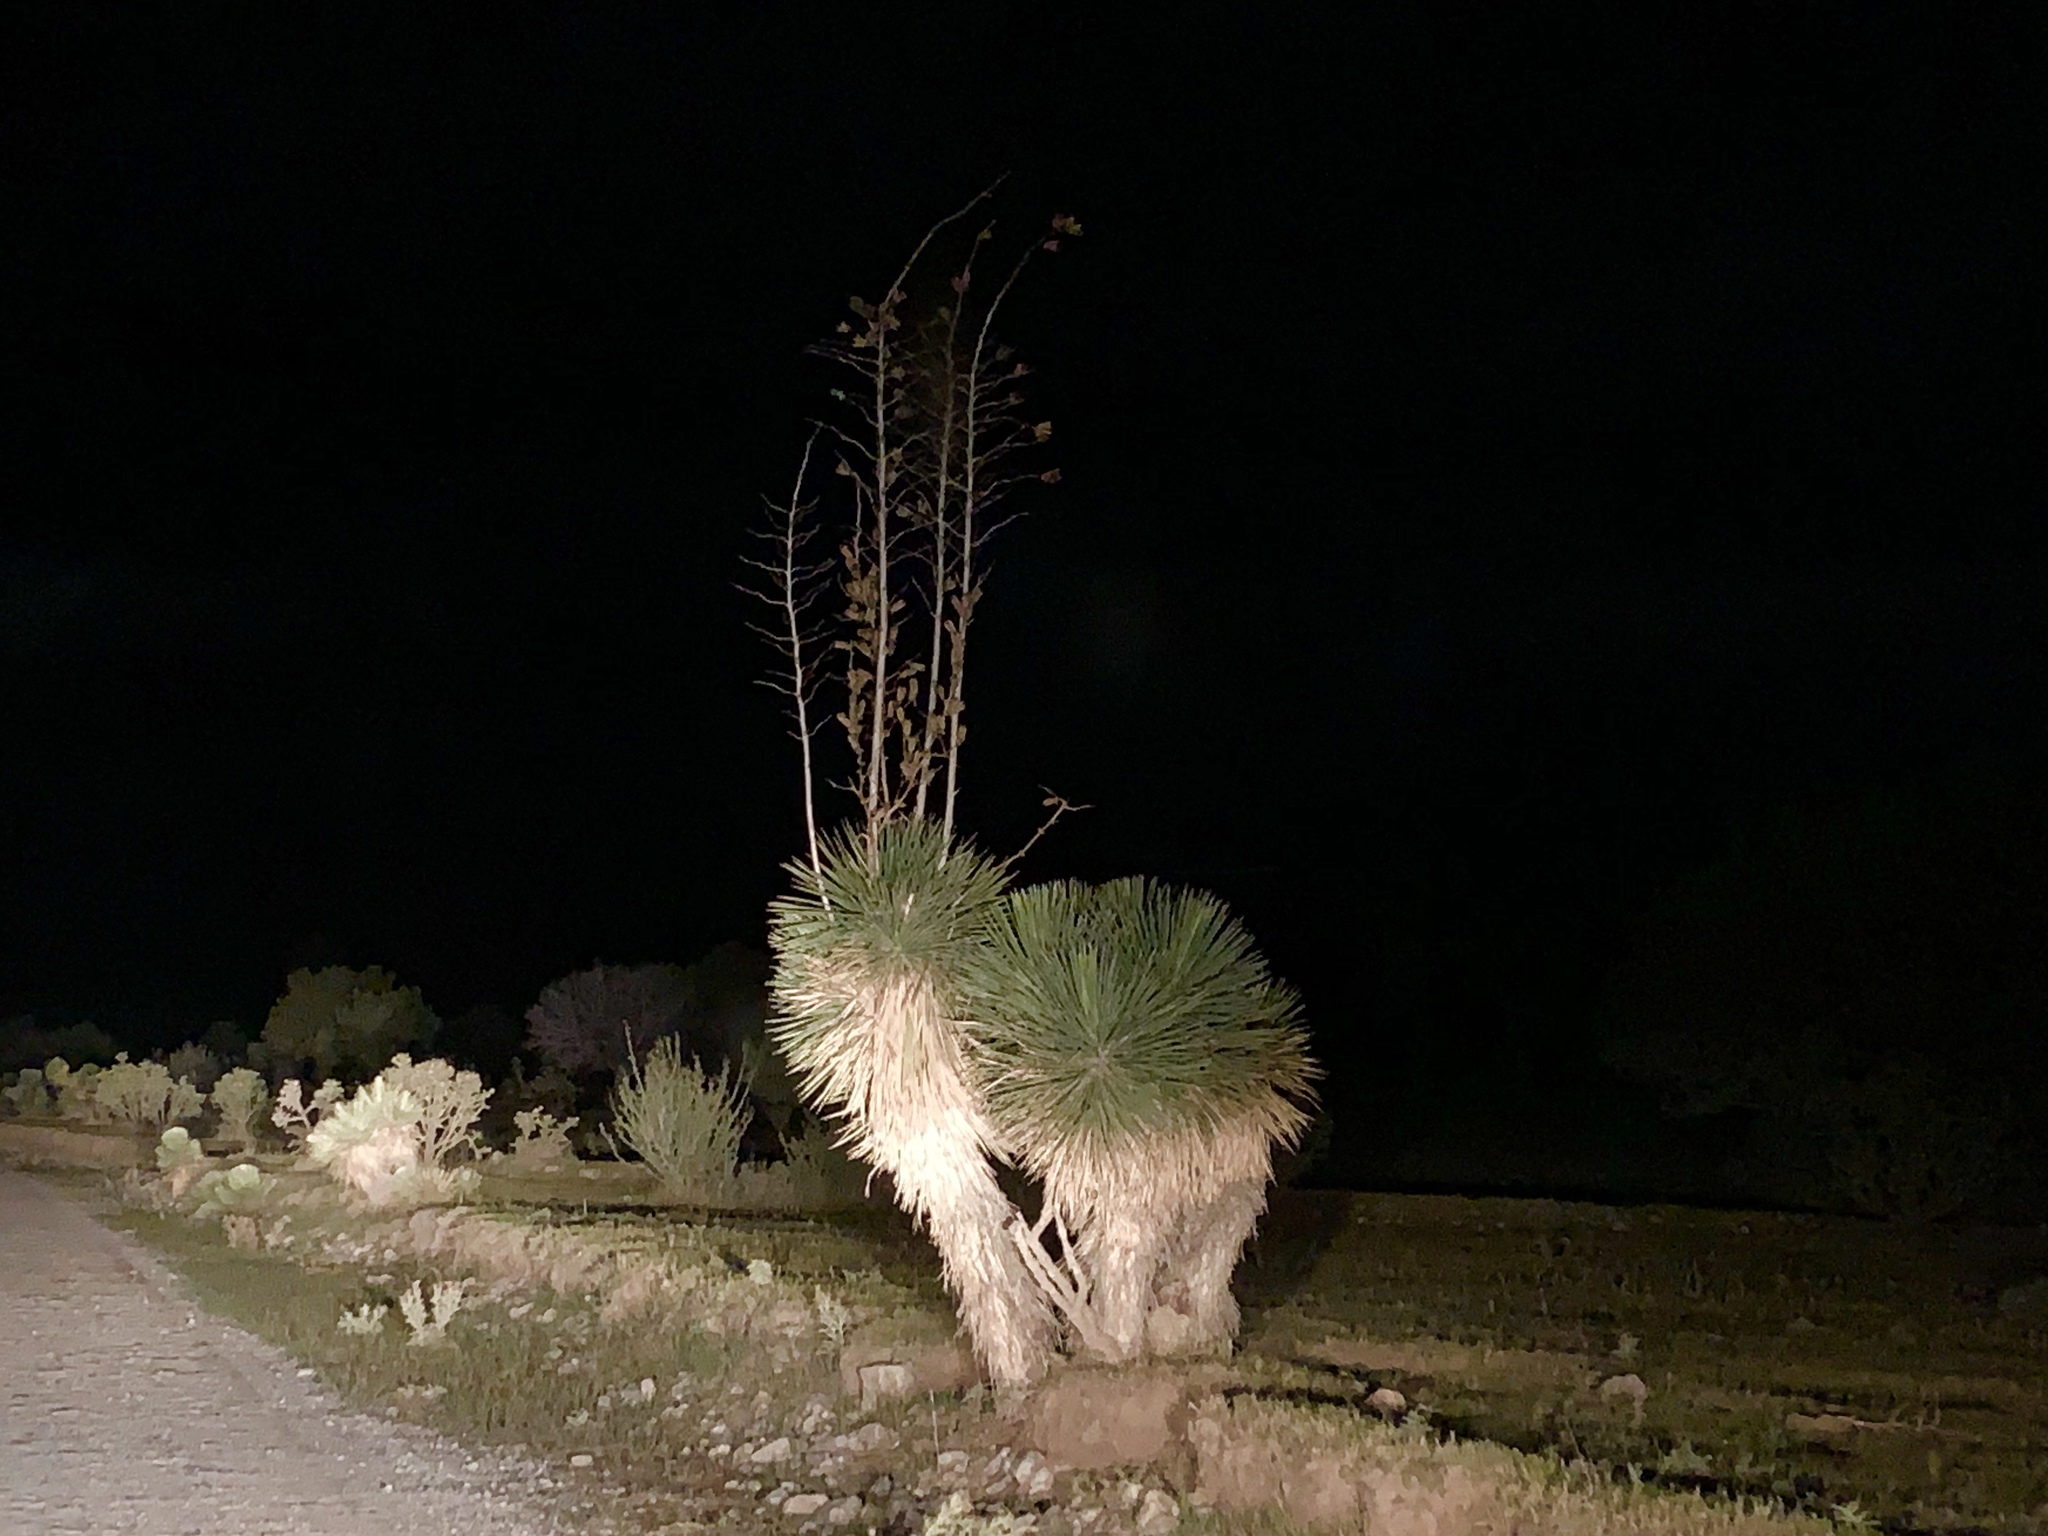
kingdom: Plantae
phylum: Tracheophyta
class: Liliopsida
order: Asparagales
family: Asparagaceae
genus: Yucca
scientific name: Yucca elata
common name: Palmella
